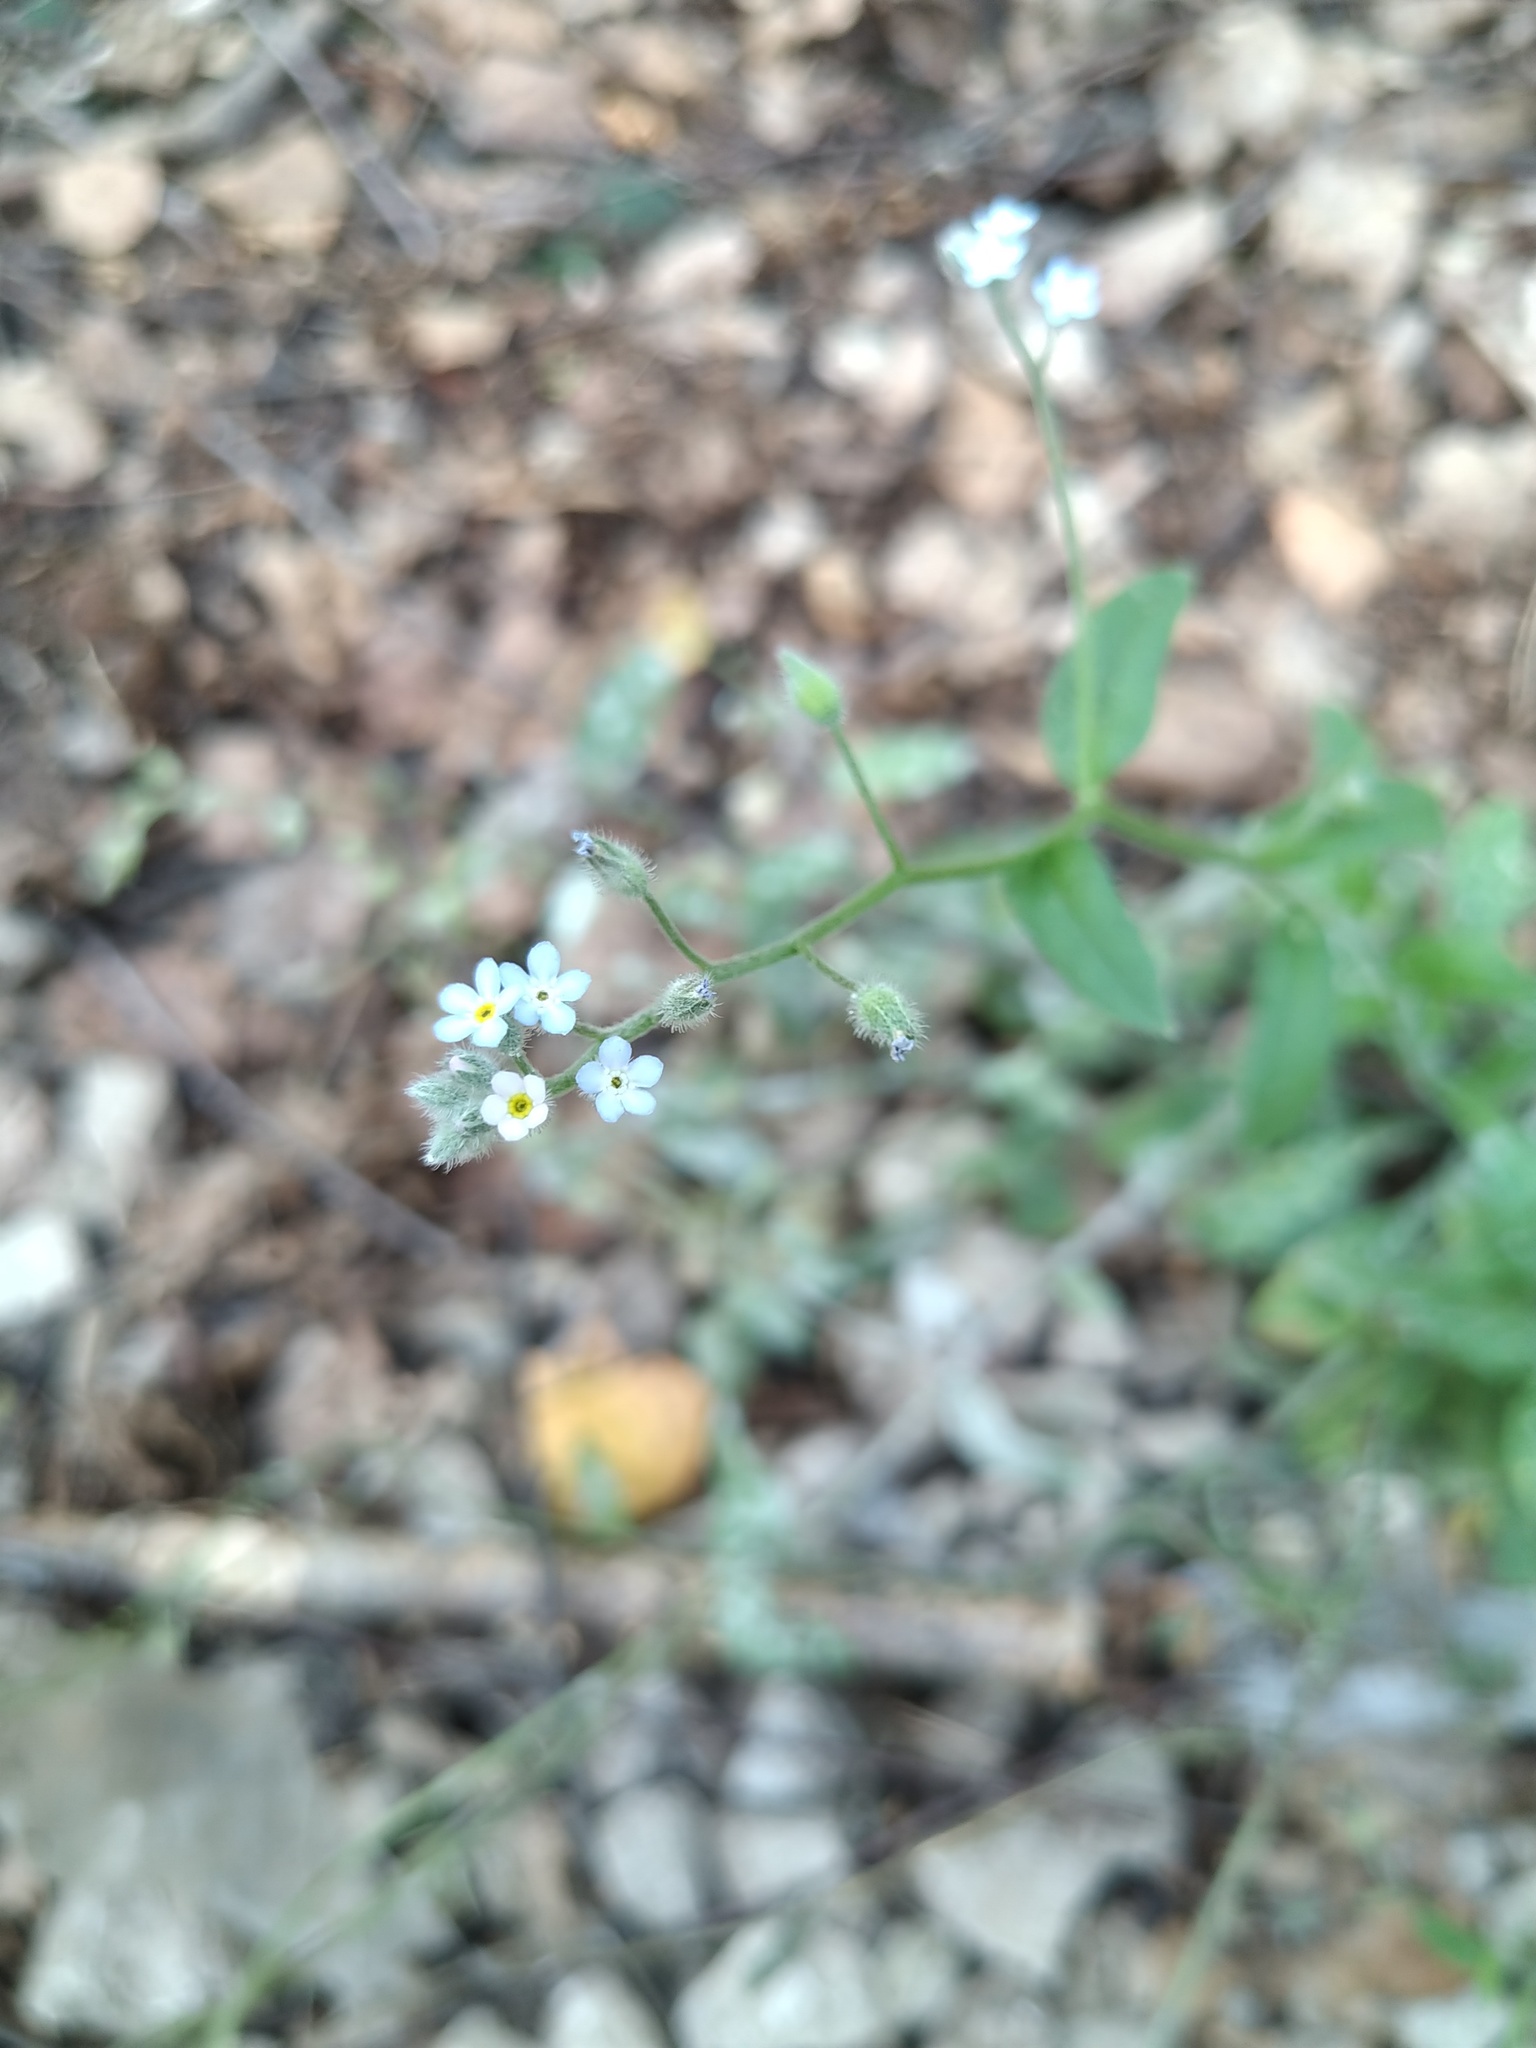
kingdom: Plantae
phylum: Tracheophyta
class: Magnoliopsida
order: Boraginales
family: Boraginaceae
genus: Myosotis
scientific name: Myosotis arvensis
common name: Field forget-me-not
